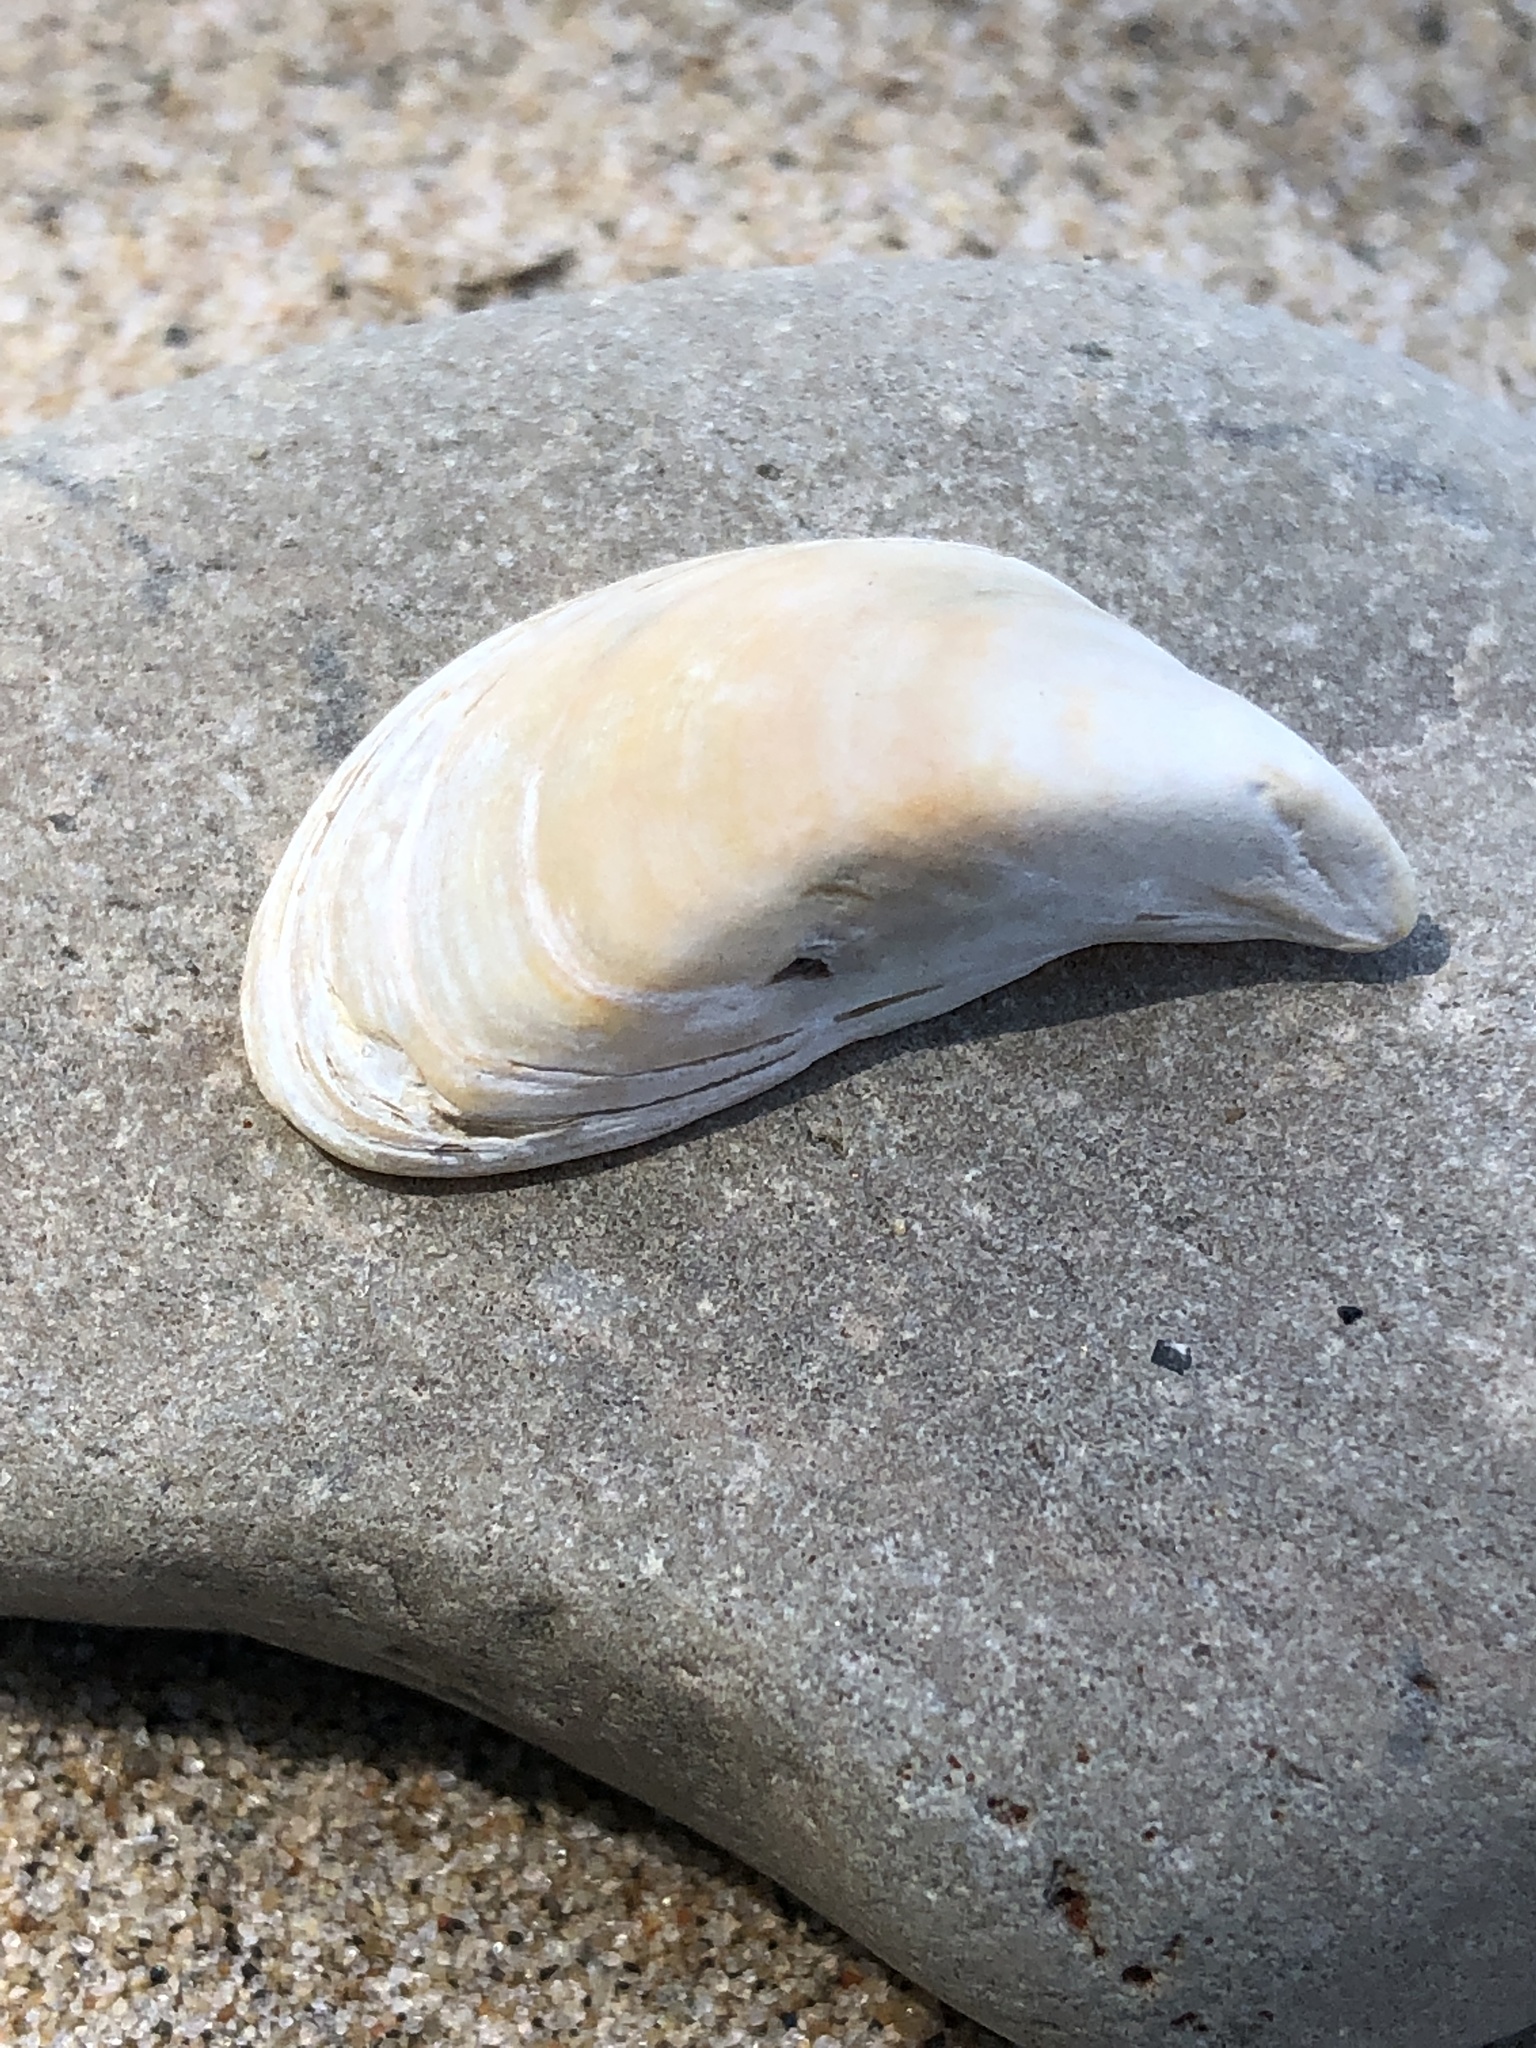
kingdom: Animalia
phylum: Mollusca
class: Bivalvia
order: Myida
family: Dreissenidae
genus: Dreissena
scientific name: Dreissena polymorpha
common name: Zebra mussel
